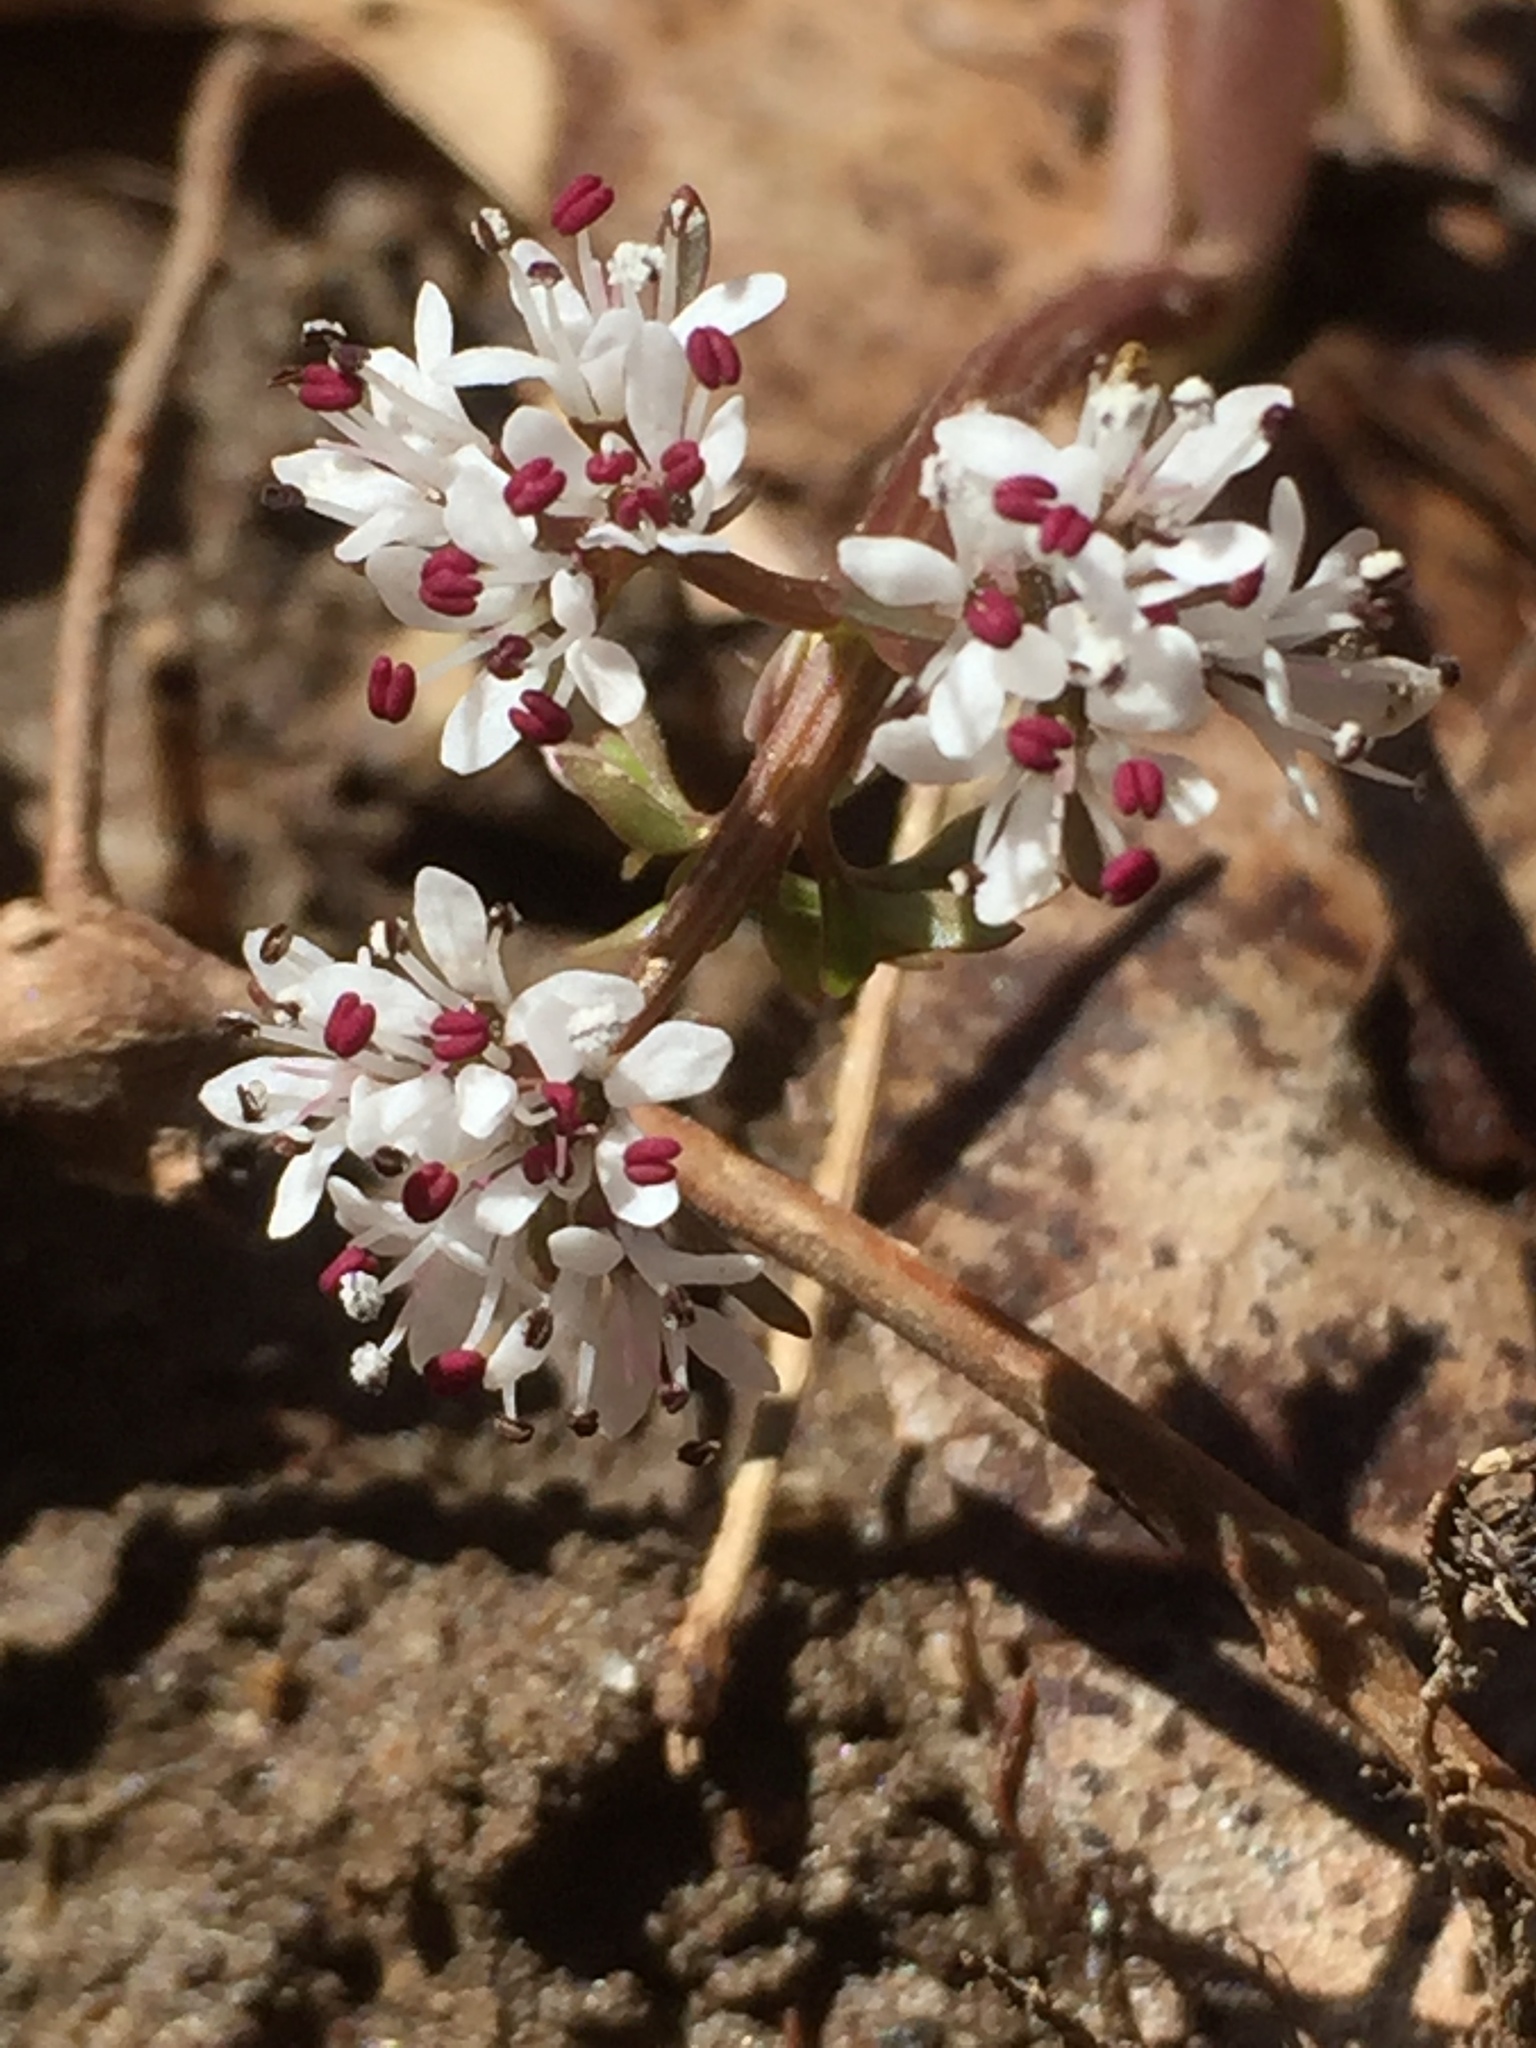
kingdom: Plantae
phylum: Tracheophyta
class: Magnoliopsida
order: Apiales
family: Apiaceae
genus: Erigenia
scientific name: Erigenia bulbosa
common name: Pepper-and-salt
